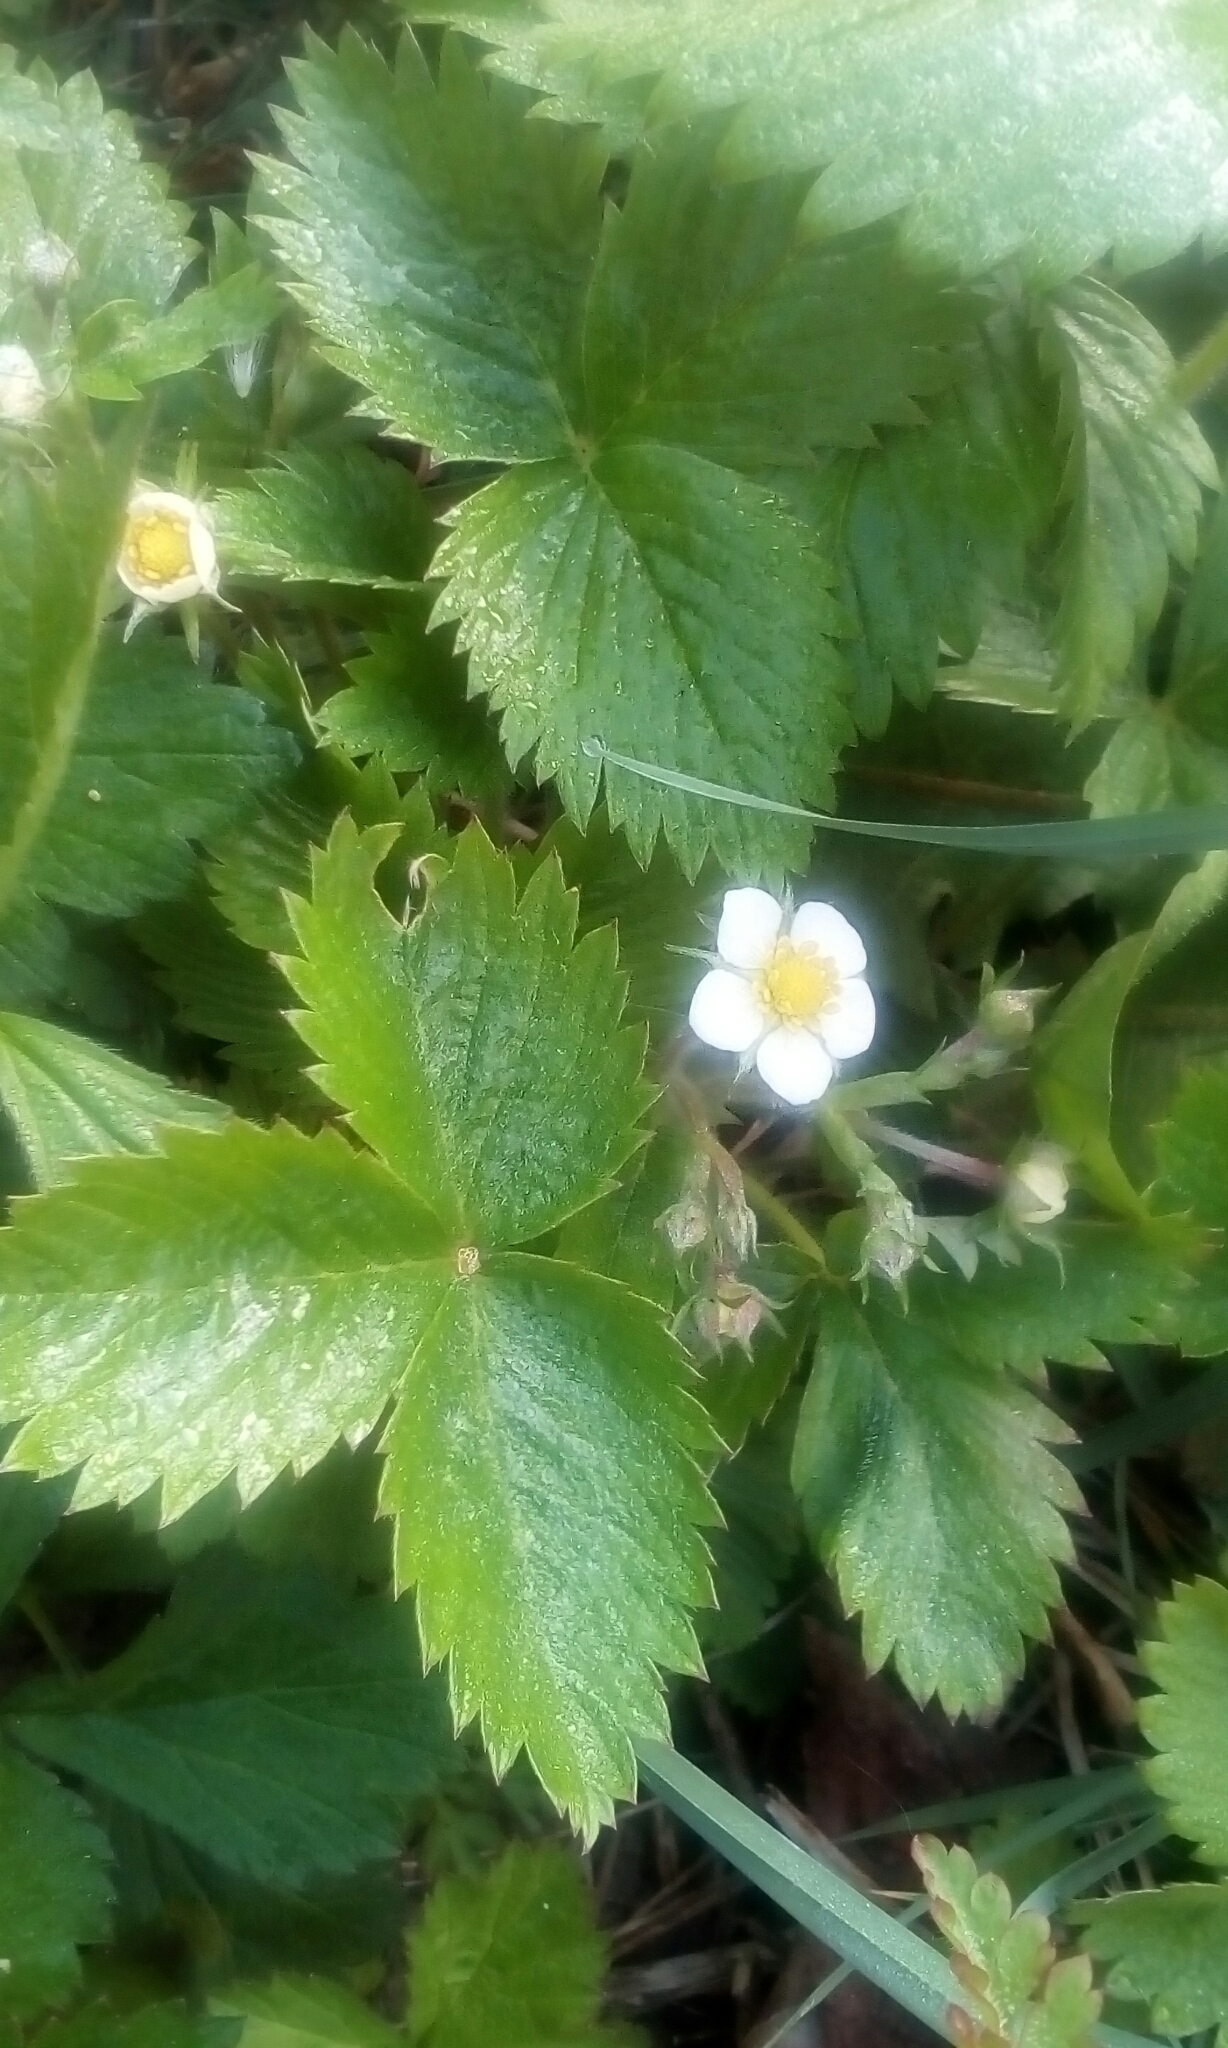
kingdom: Plantae
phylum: Tracheophyta
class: Magnoliopsida
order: Rosales
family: Rosaceae
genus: Fragaria
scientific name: Fragaria vesca
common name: Wild strawberry
